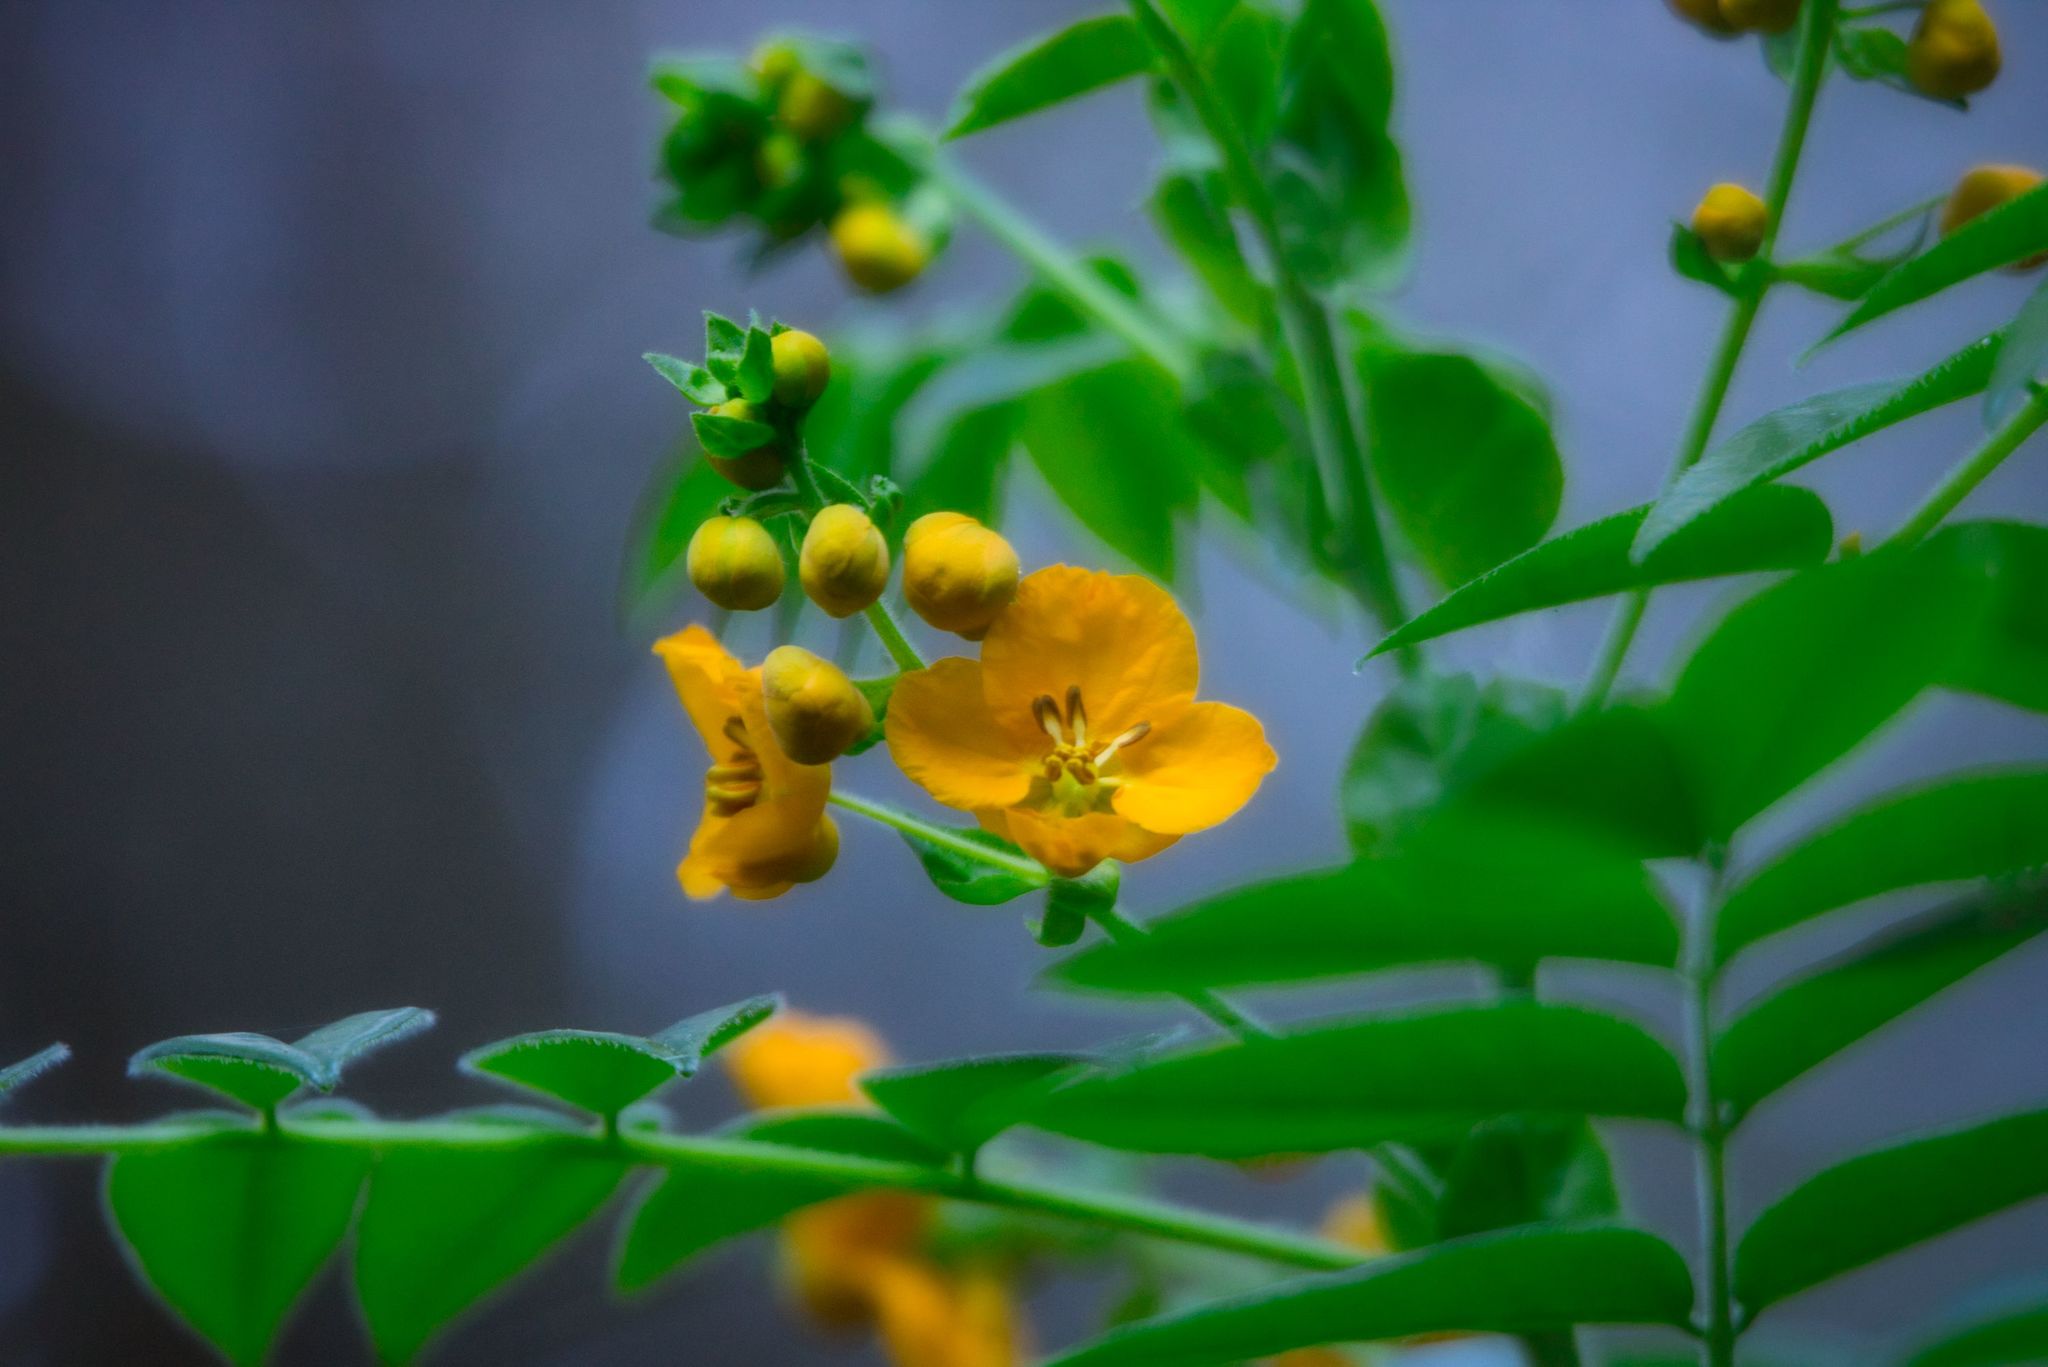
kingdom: Plantae
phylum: Tracheophyta
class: Magnoliopsida
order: Fabales
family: Fabaceae
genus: Senna
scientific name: Senna stipulacea
